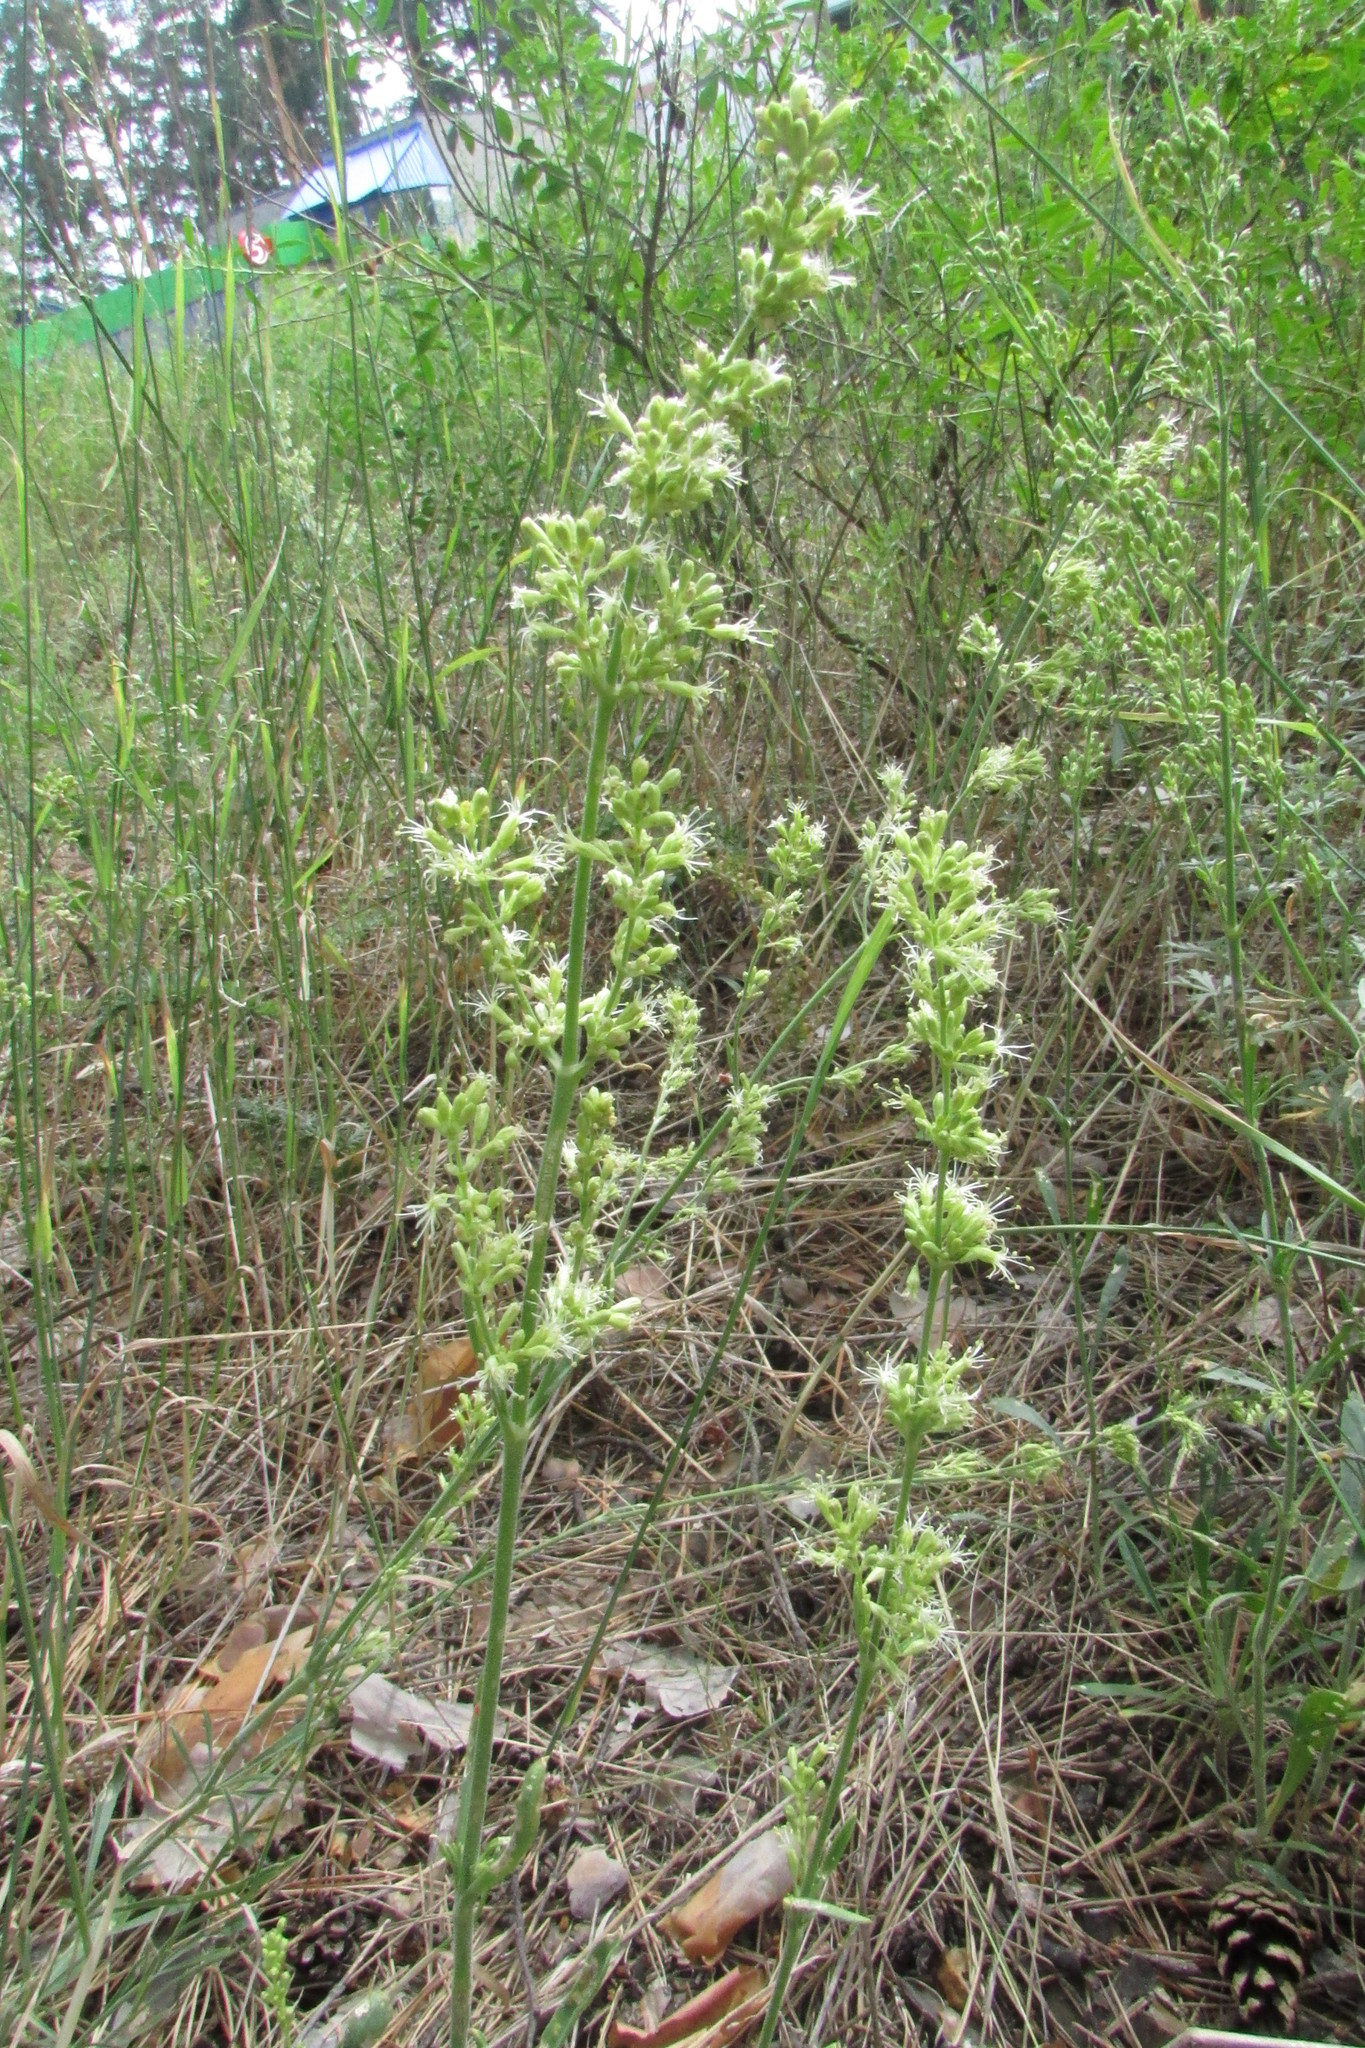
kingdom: Plantae
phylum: Tracheophyta
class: Magnoliopsida
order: Caryophyllales
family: Caryophyllaceae
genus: Silene
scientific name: Silene borysthenica
